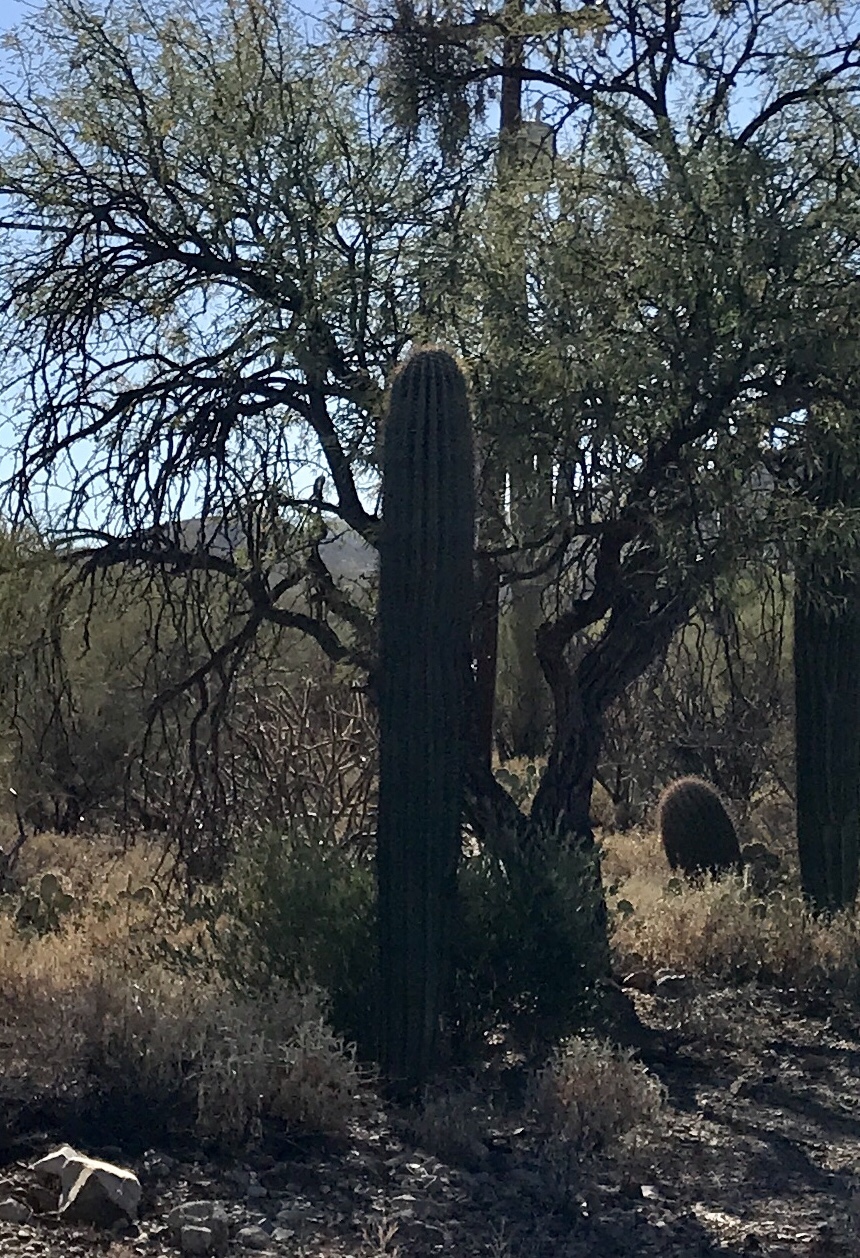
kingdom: Plantae
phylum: Tracheophyta
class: Magnoliopsida
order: Caryophyllales
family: Cactaceae
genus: Carnegiea
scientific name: Carnegiea gigantea
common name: Saguaro
